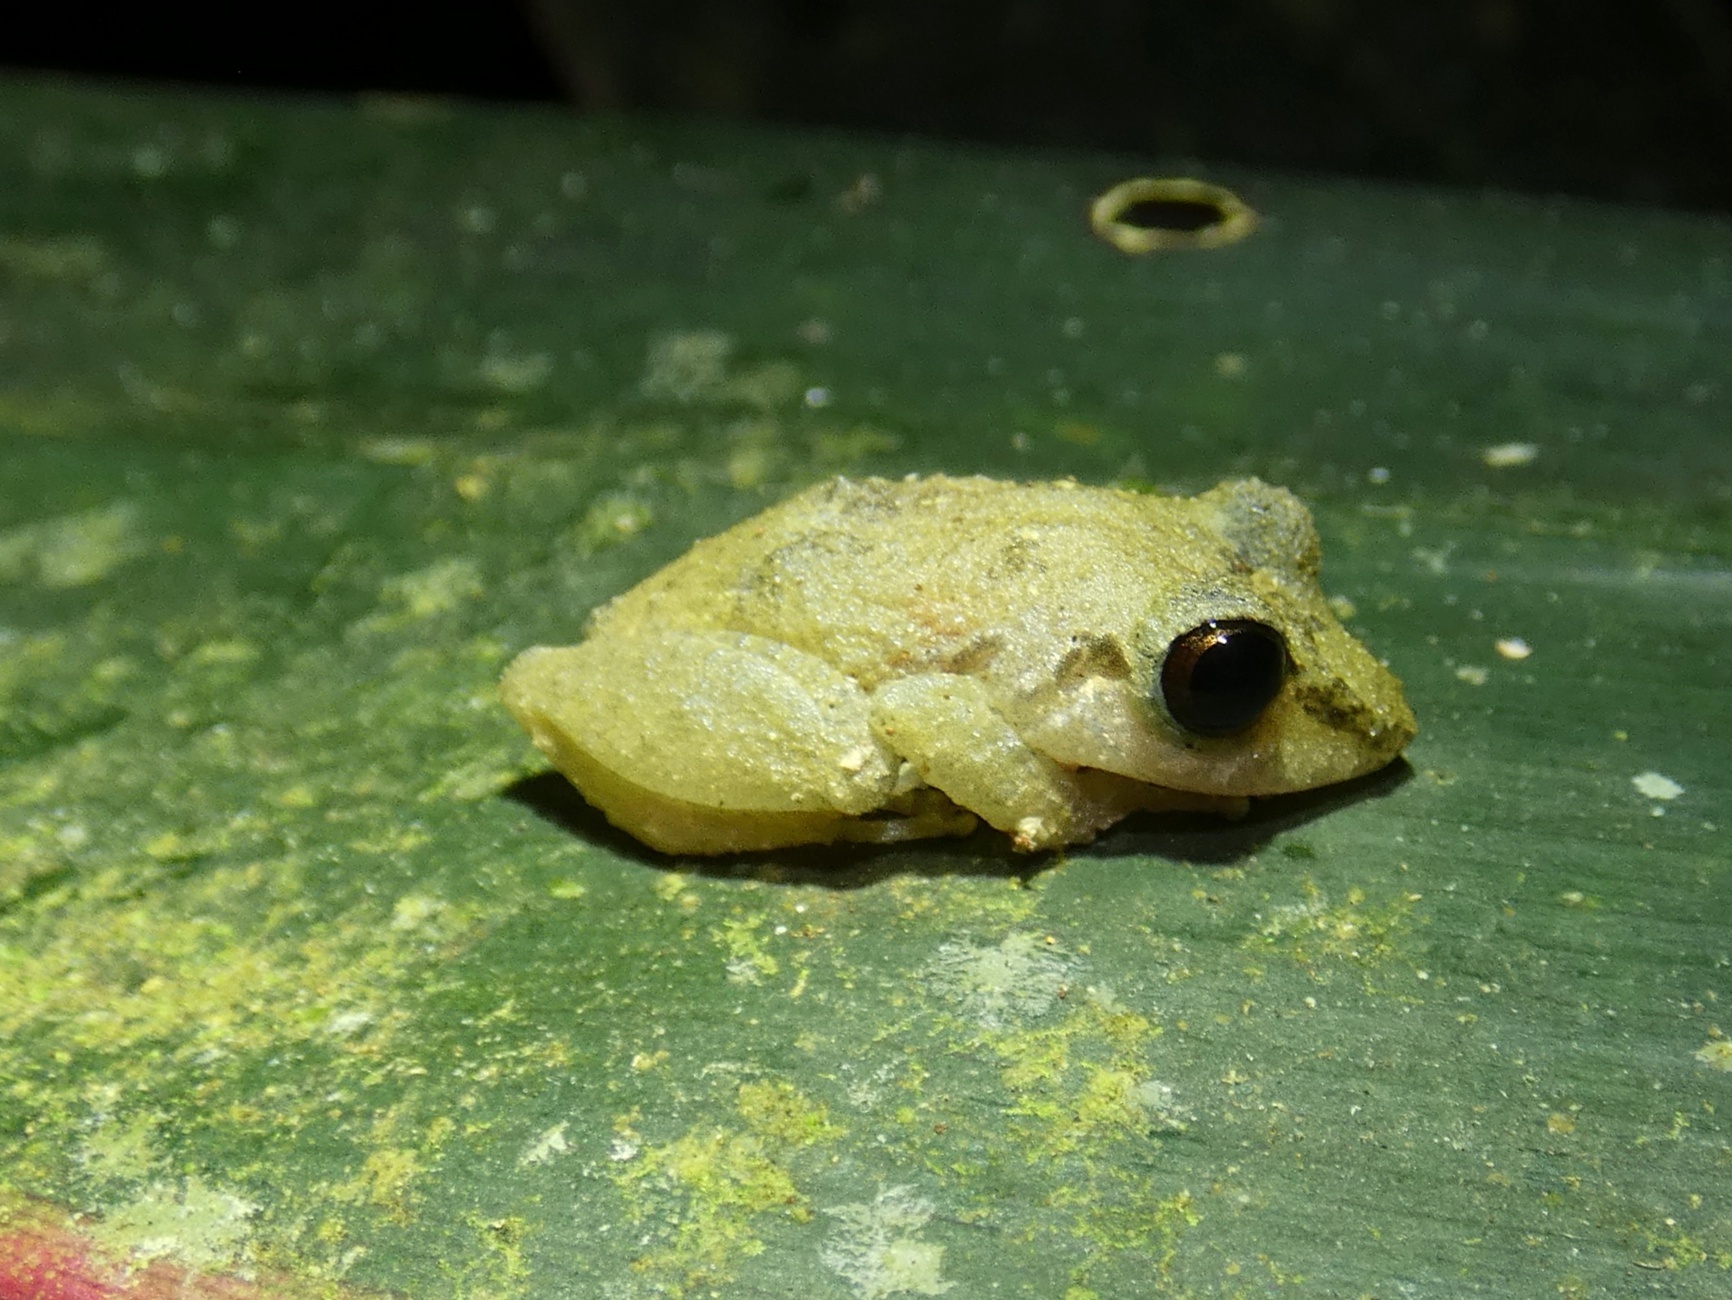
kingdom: Animalia
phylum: Chordata
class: Amphibia
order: Anura
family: Craugastoridae
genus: Pristimantis
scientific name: Pristimantis ridens
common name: Rio san juan robber frog
